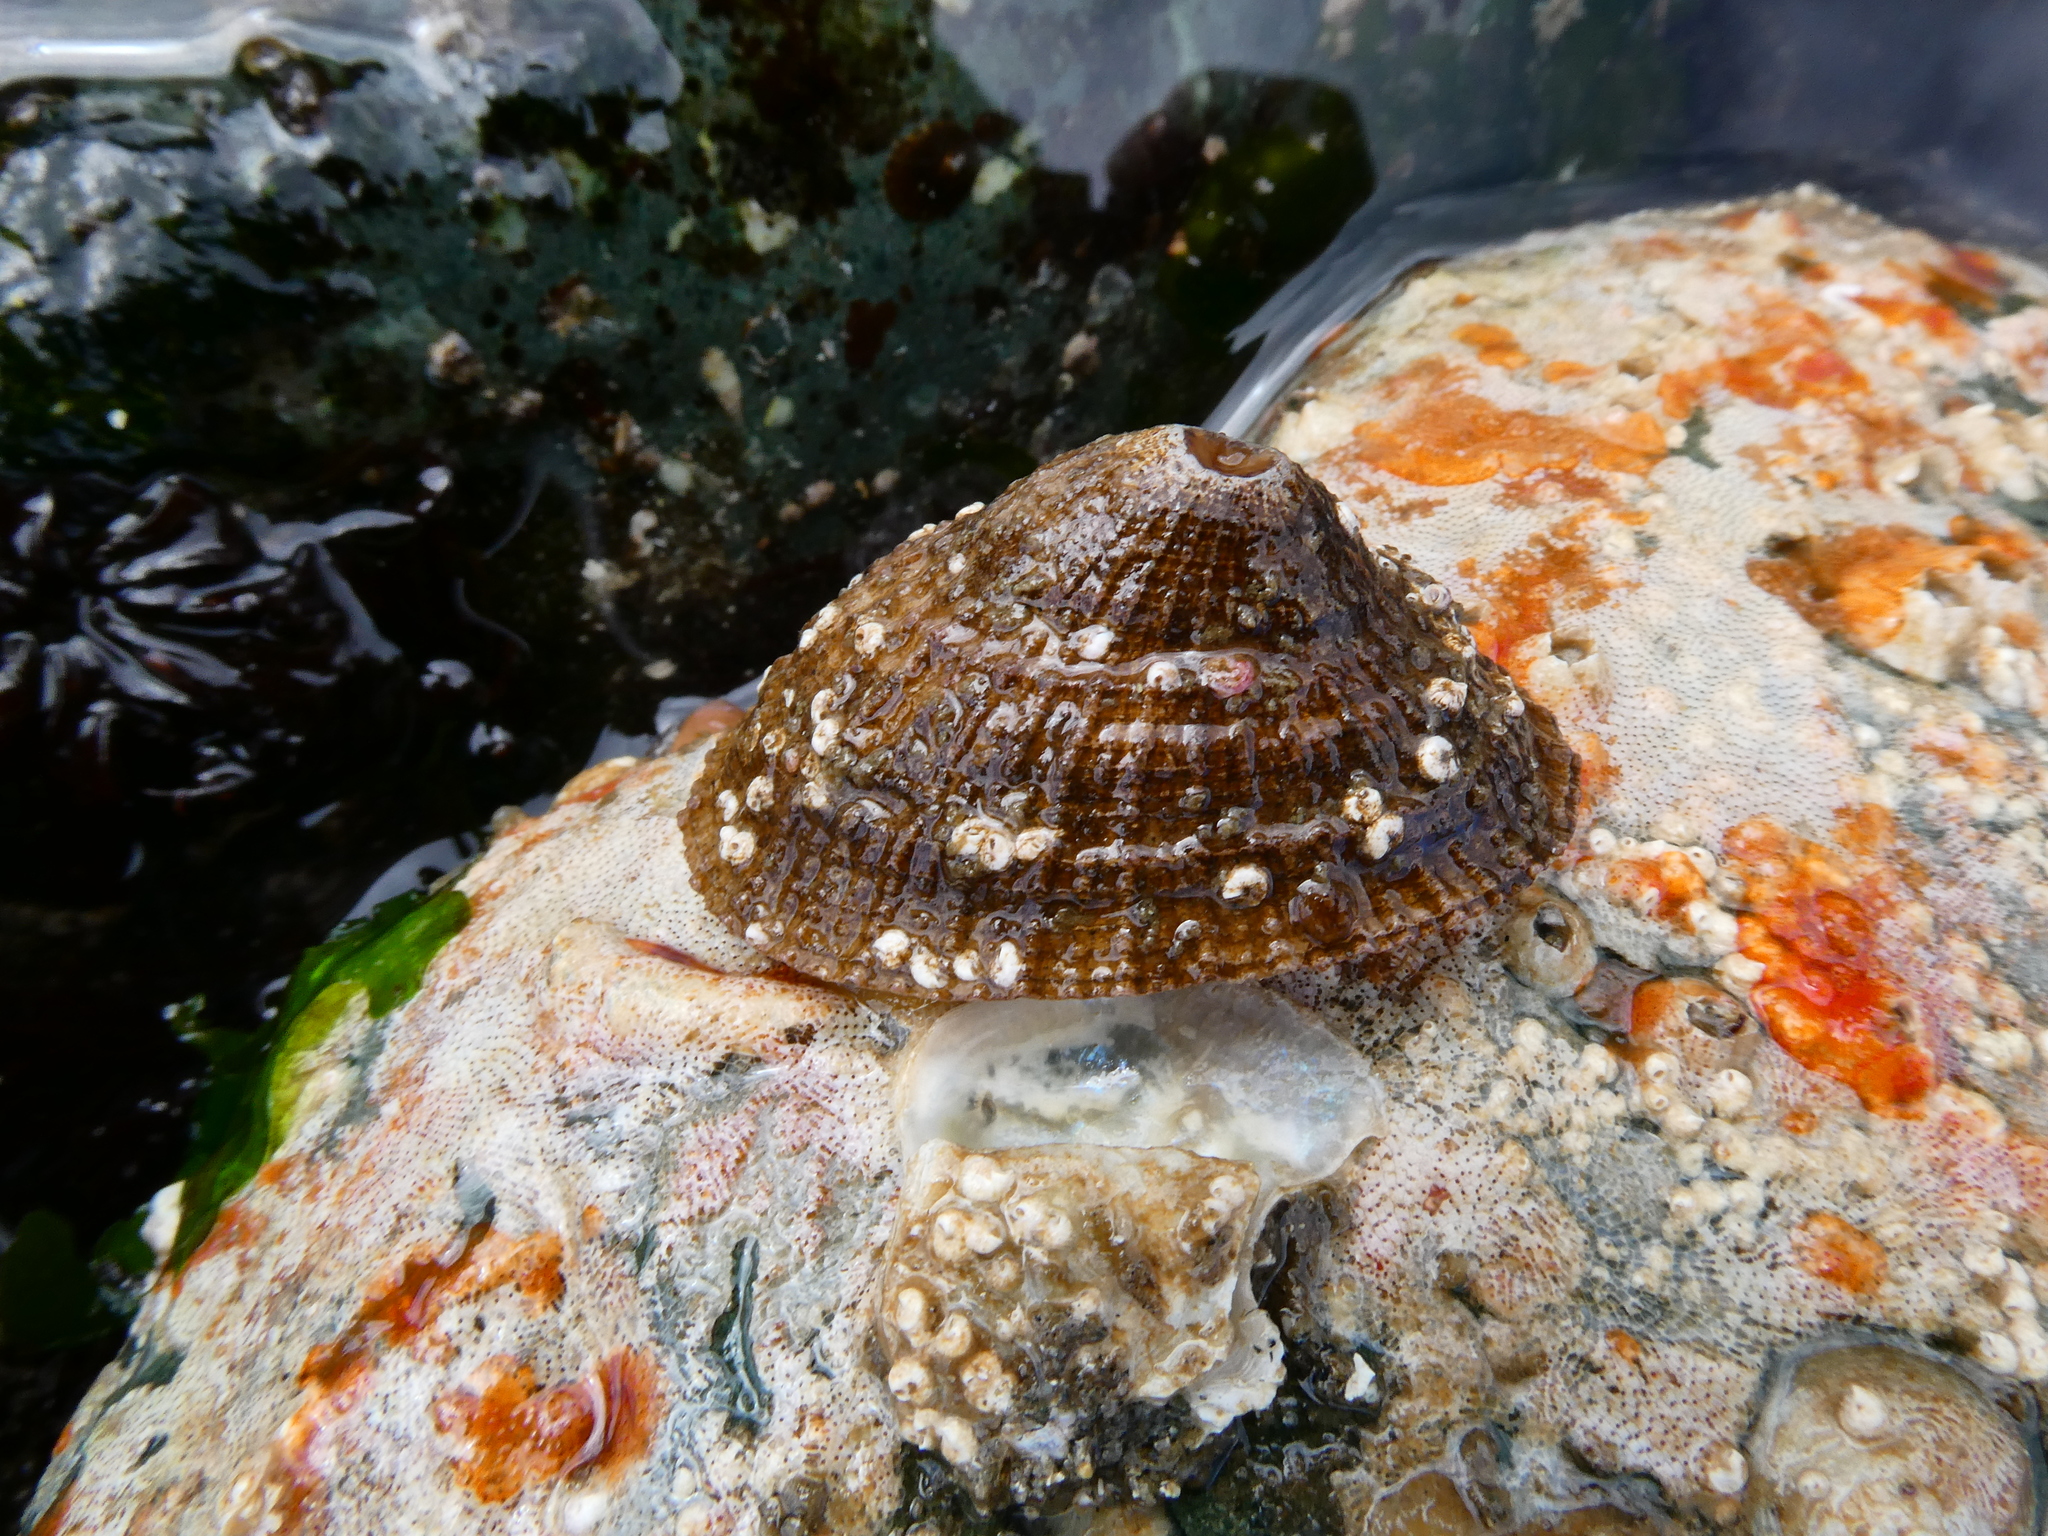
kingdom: Animalia
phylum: Mollusca
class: Gastropoda
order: Lepetellida
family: Fissurellidae
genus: Diodora
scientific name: Diodora aspera
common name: Rough keyhole limpet
